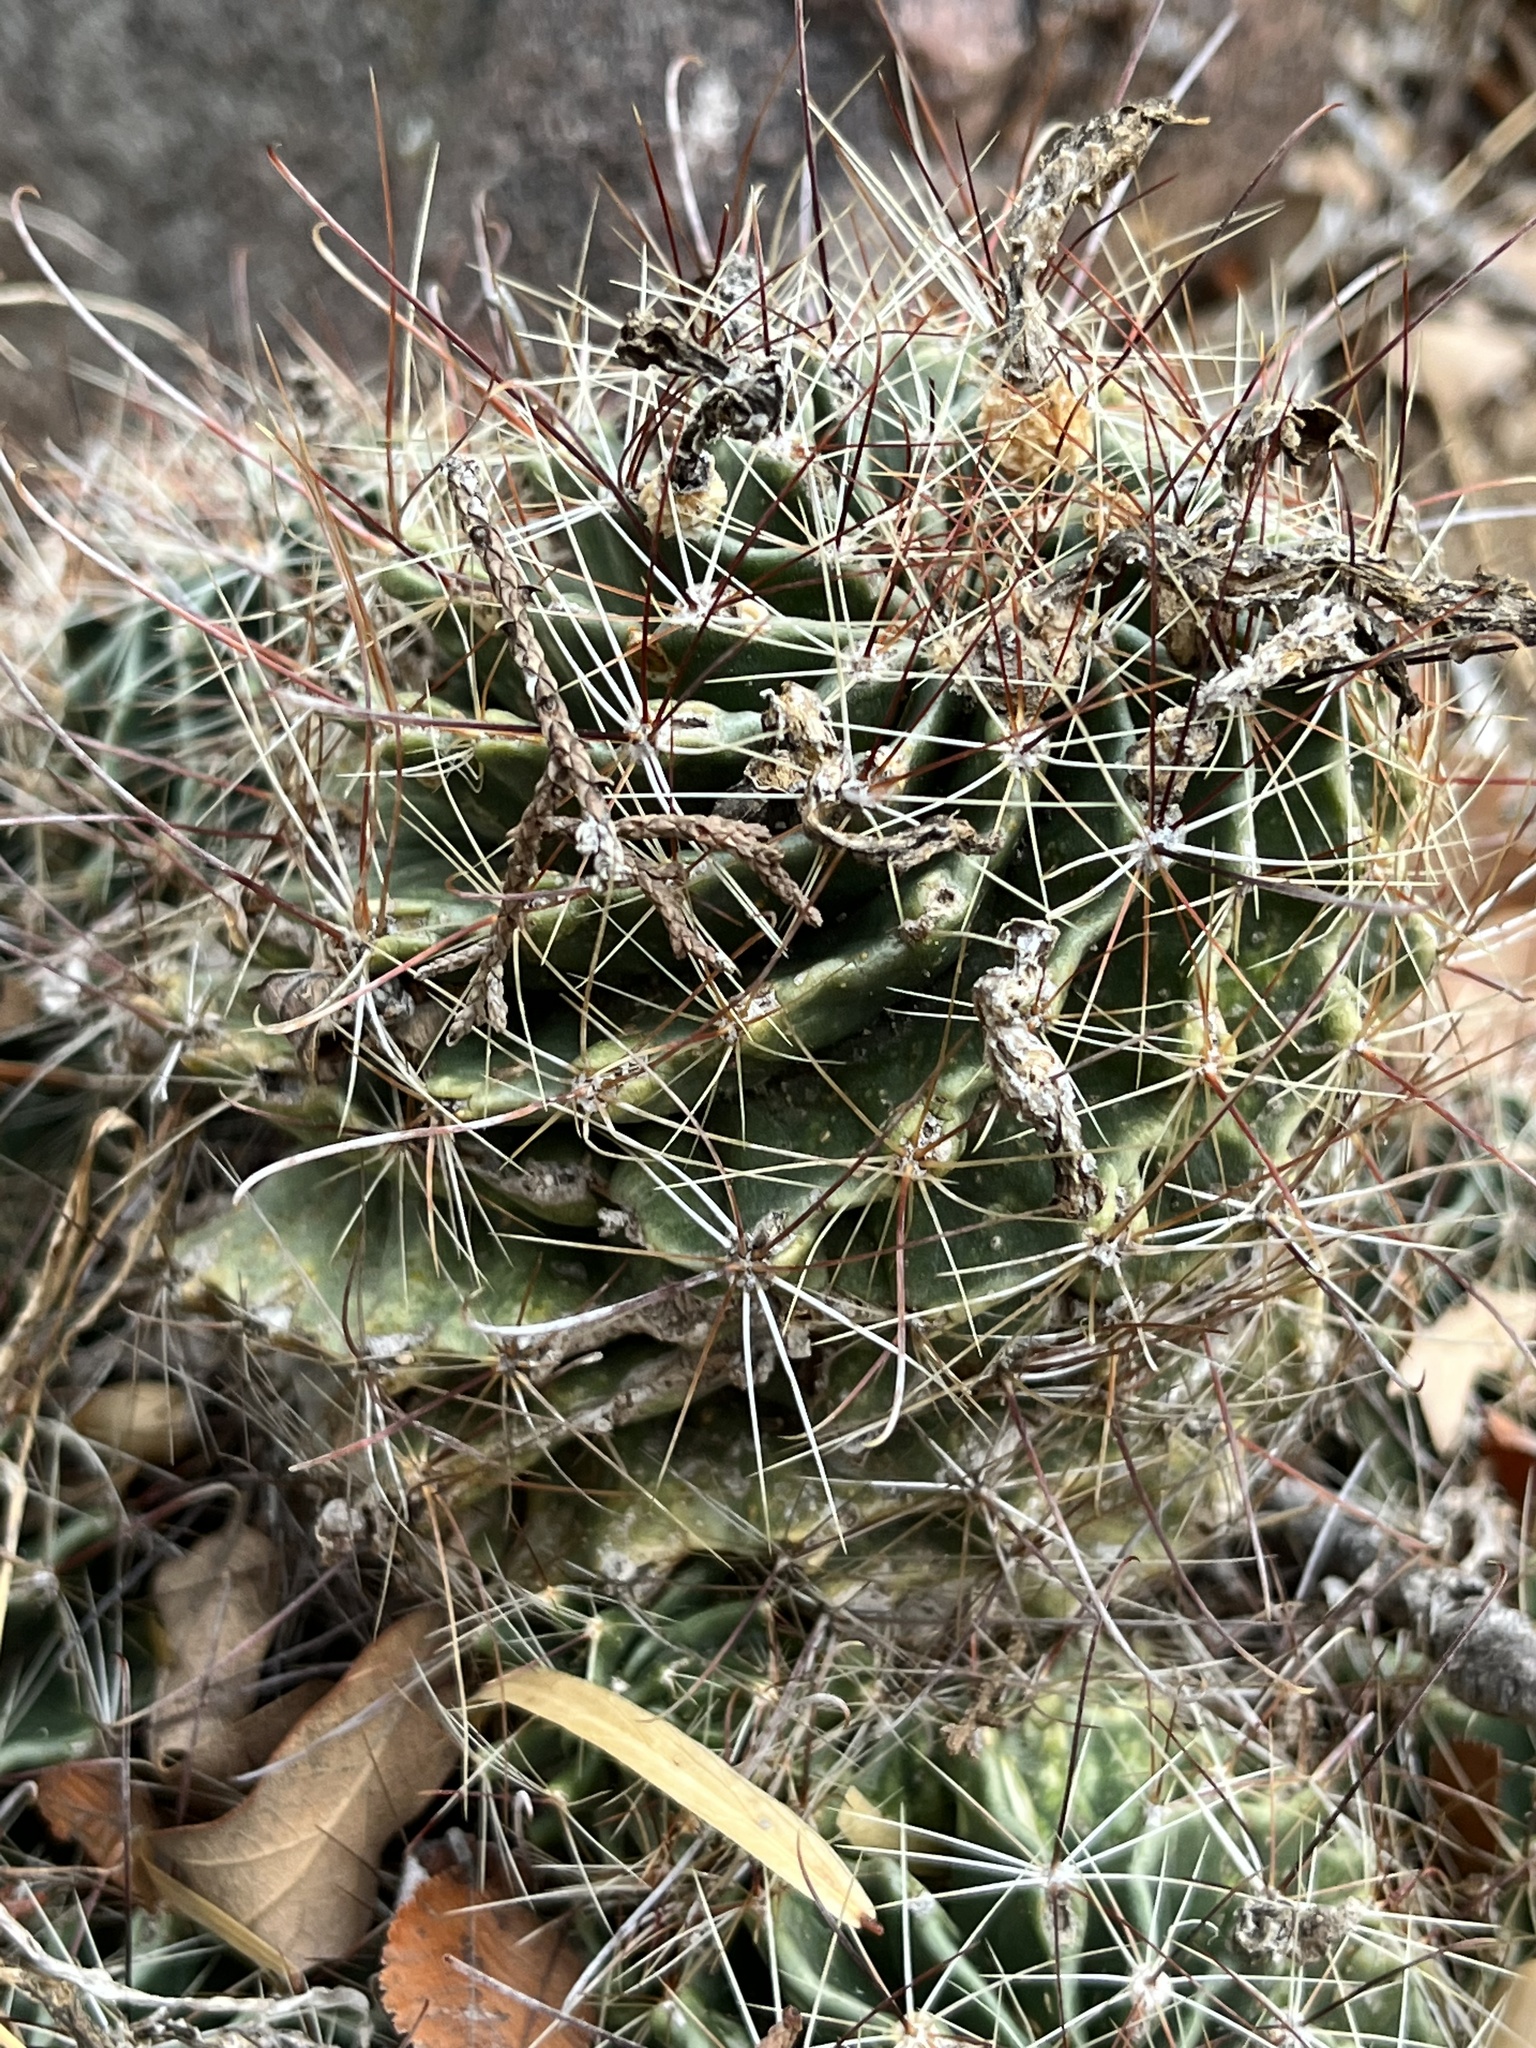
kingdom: Plantae
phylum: Tracheophyta
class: Magnoliopsida
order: Caryophyllales
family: Cactaceae
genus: Thelocactus
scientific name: Thelocactus setispinus
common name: Miniature barrel cactus
